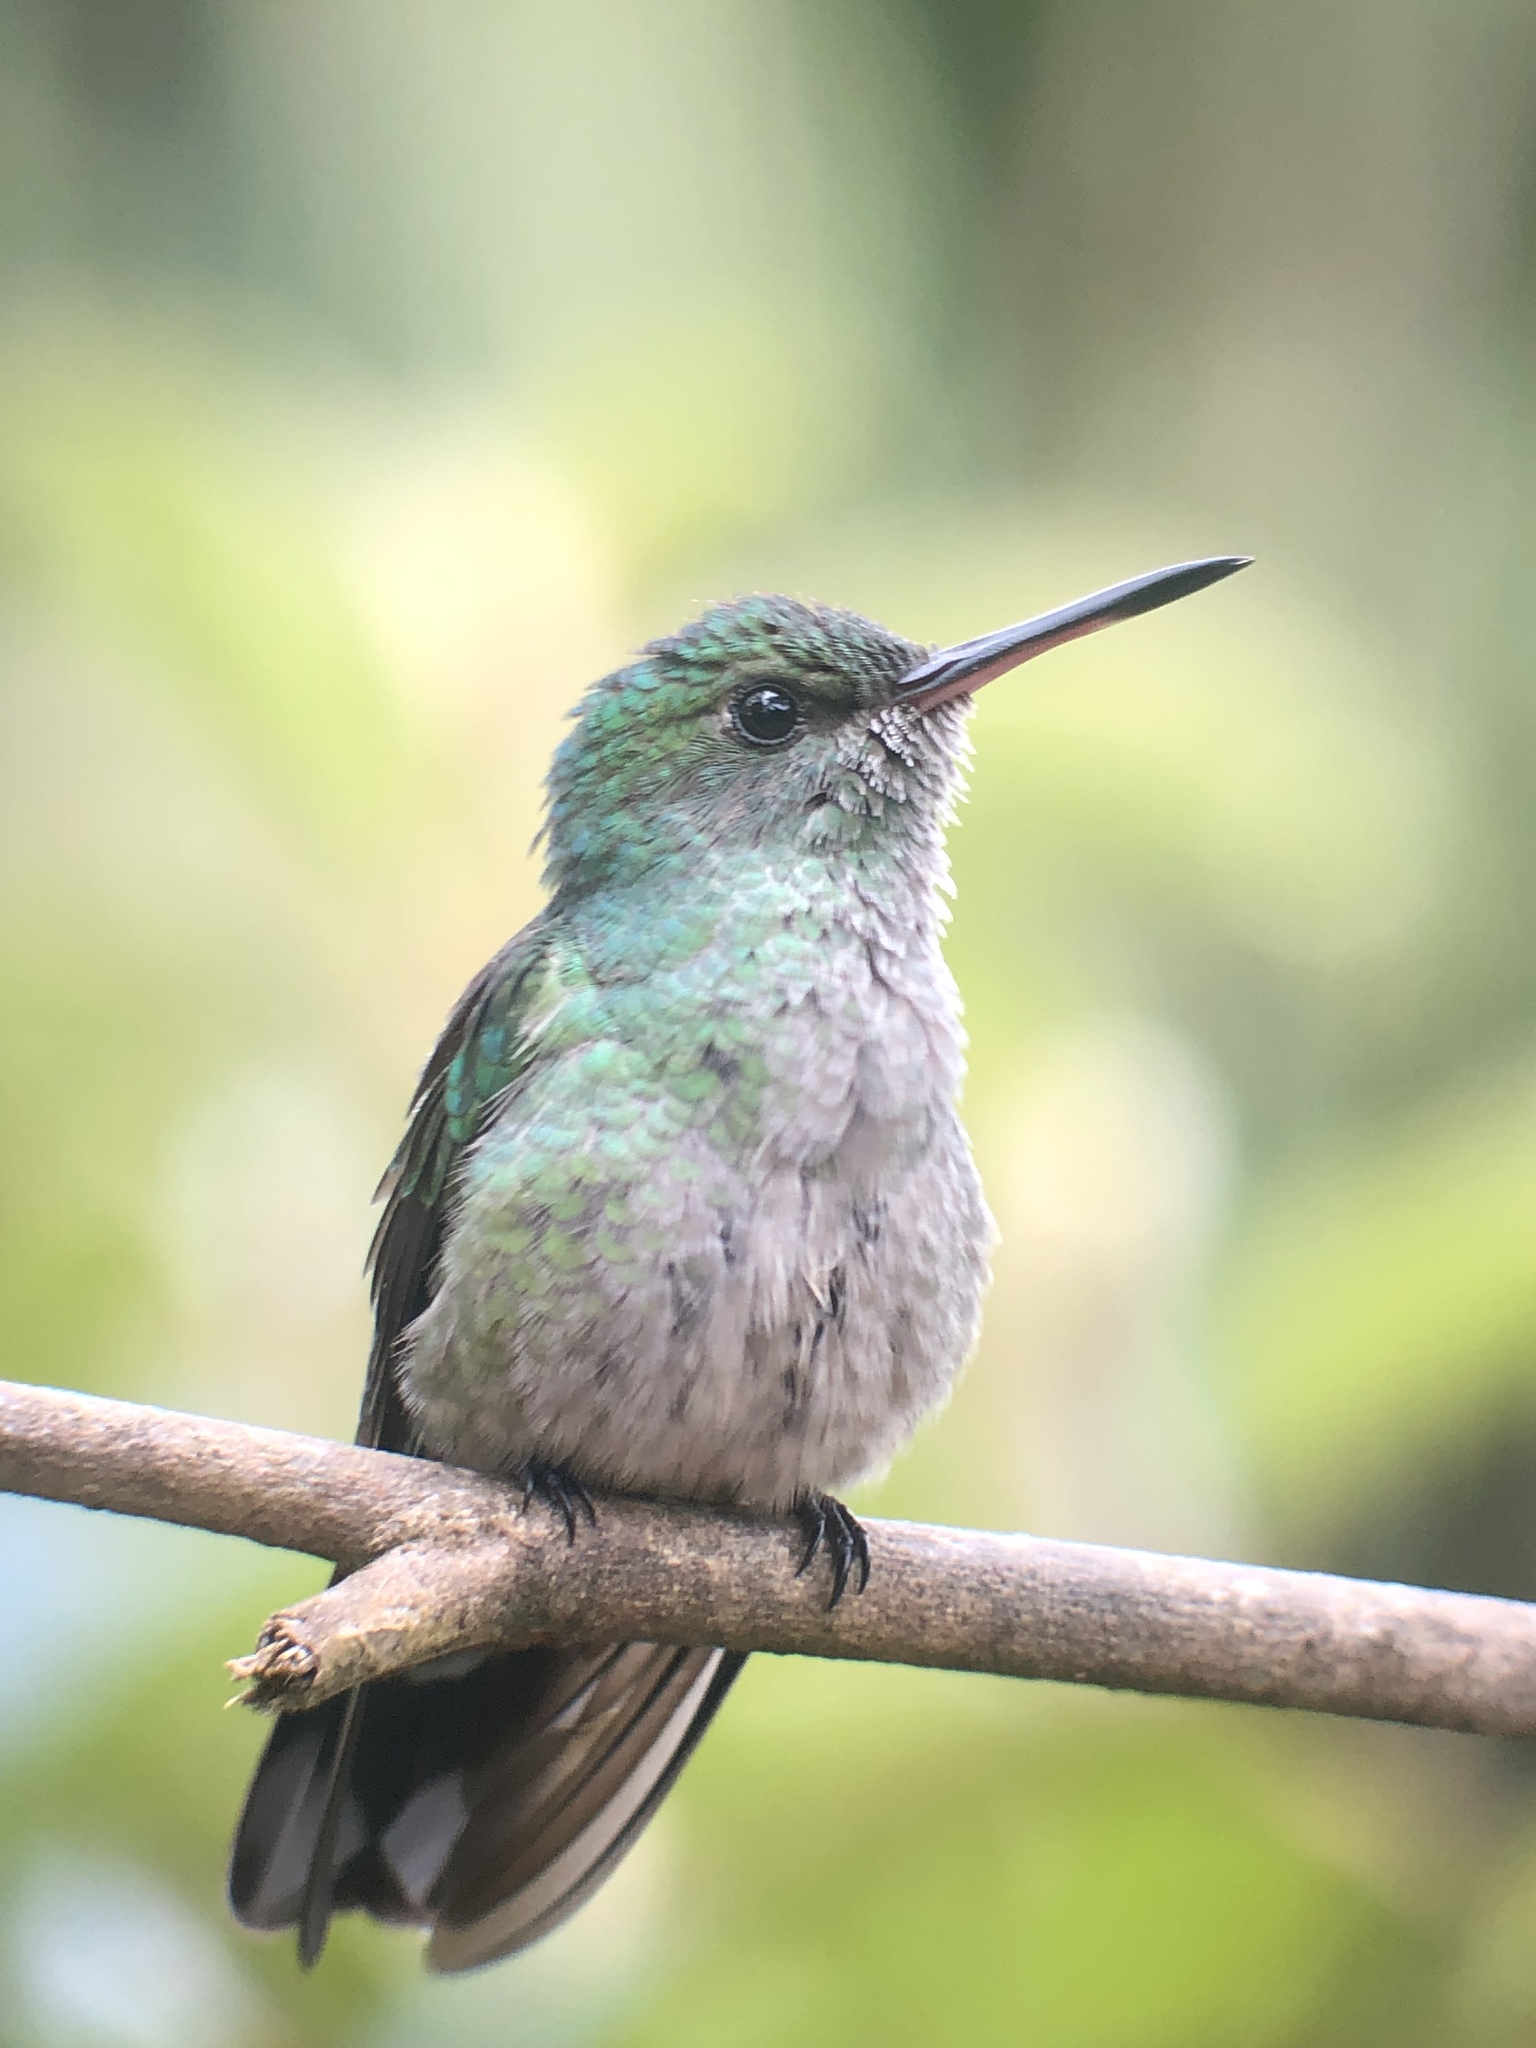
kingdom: Animalia
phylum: Chordata
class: Aves
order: Apodiformes
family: Trochilidae
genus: Phaeochroa
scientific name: Phaeochroa cuvierii
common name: Scaly-breasted hummingbird
